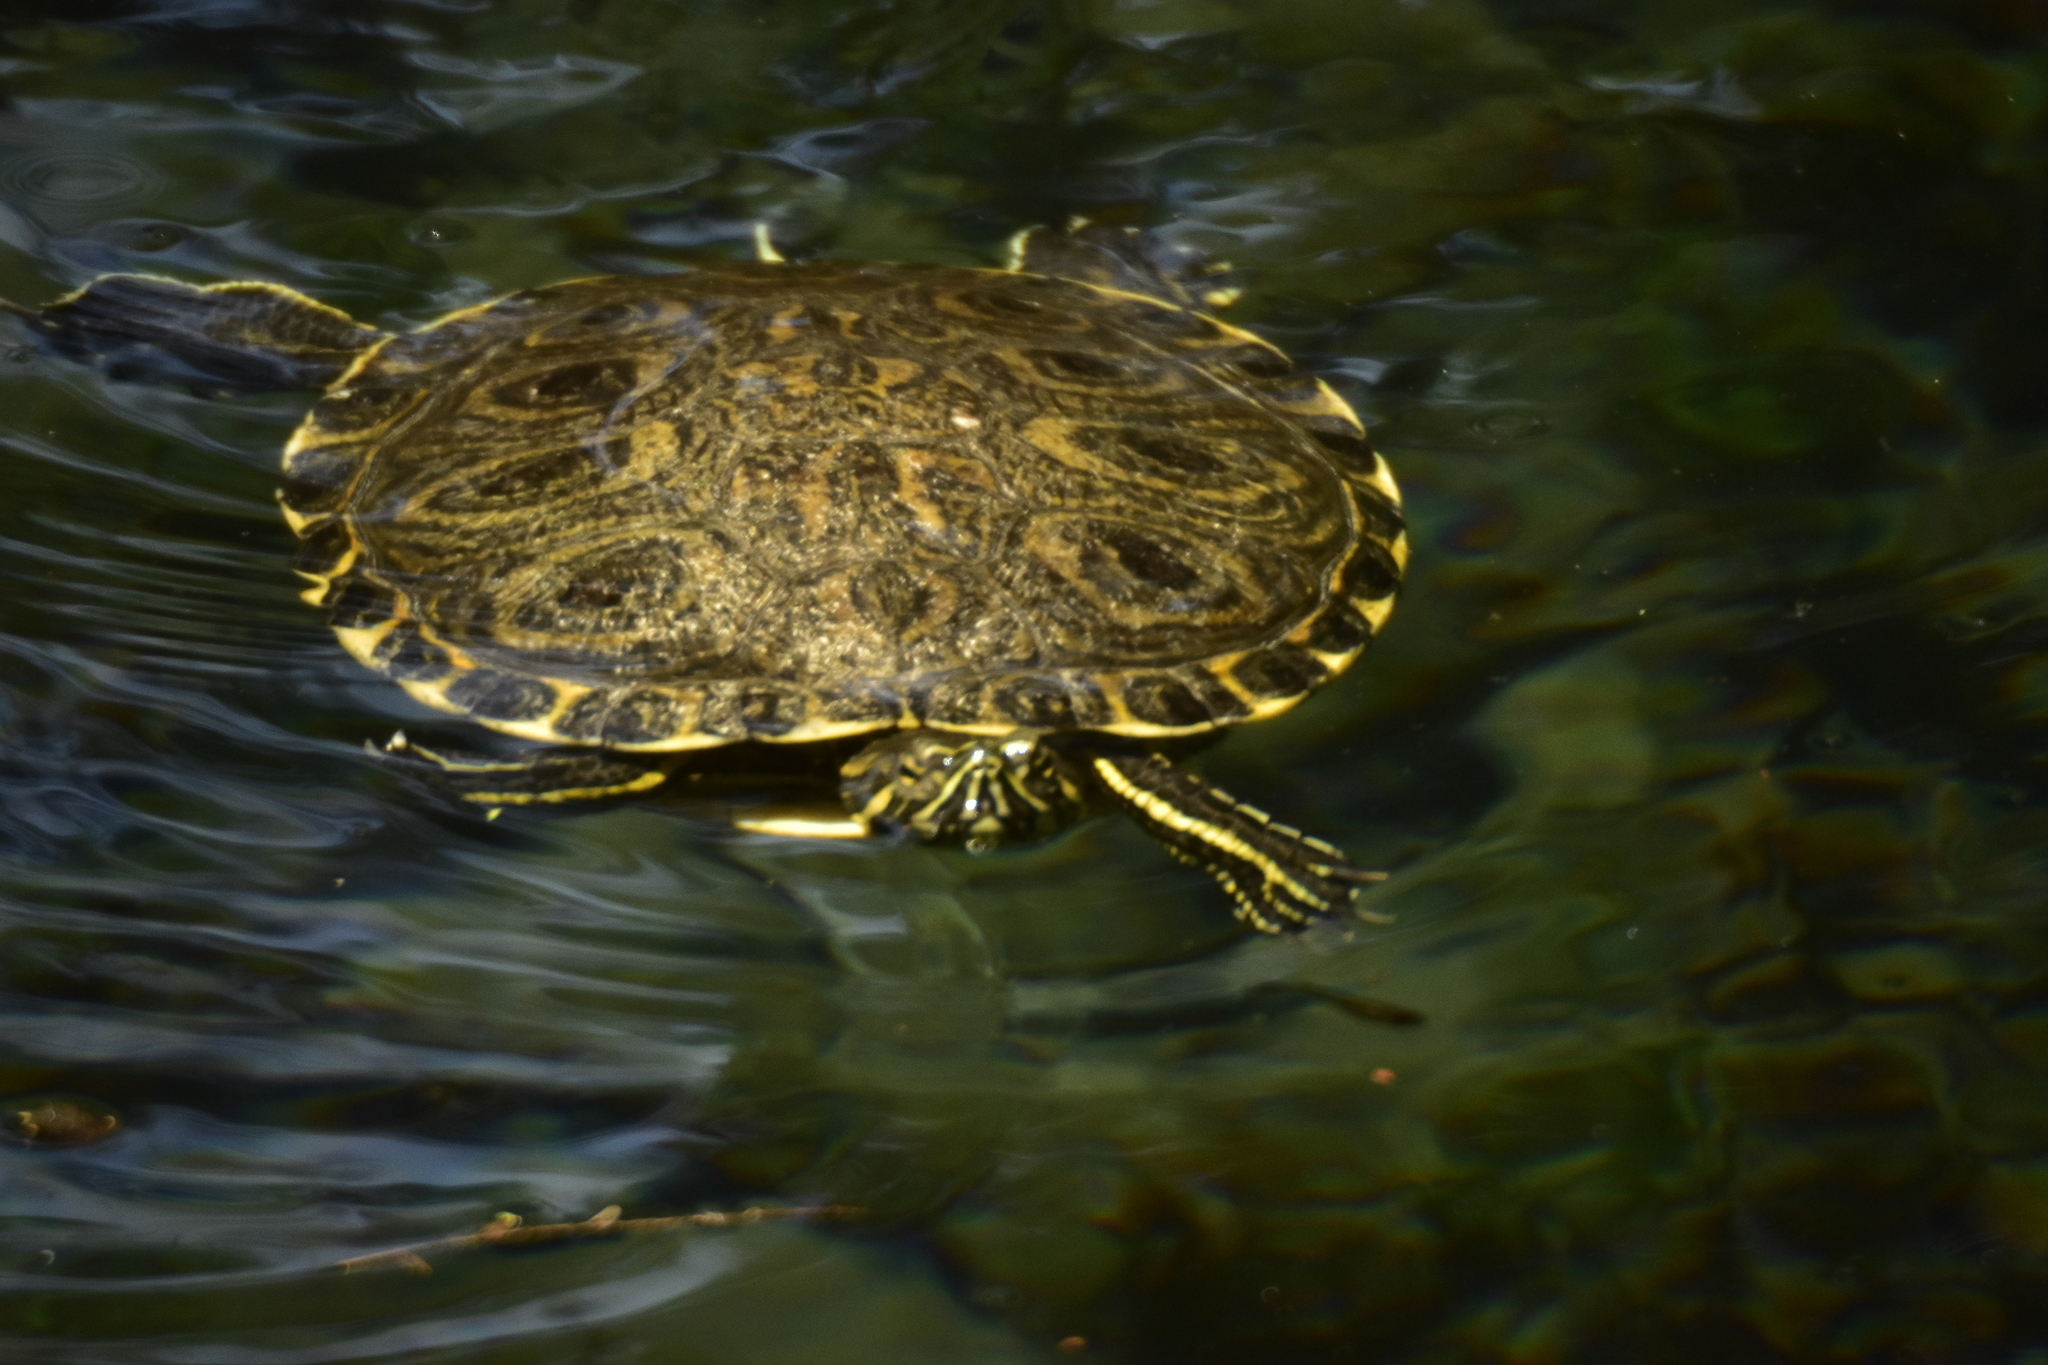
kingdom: Animalia
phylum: Chordata
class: Testudines
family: Emydidae
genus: Trachemys
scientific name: Trachemys venusta
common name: Mesoamerican slider
